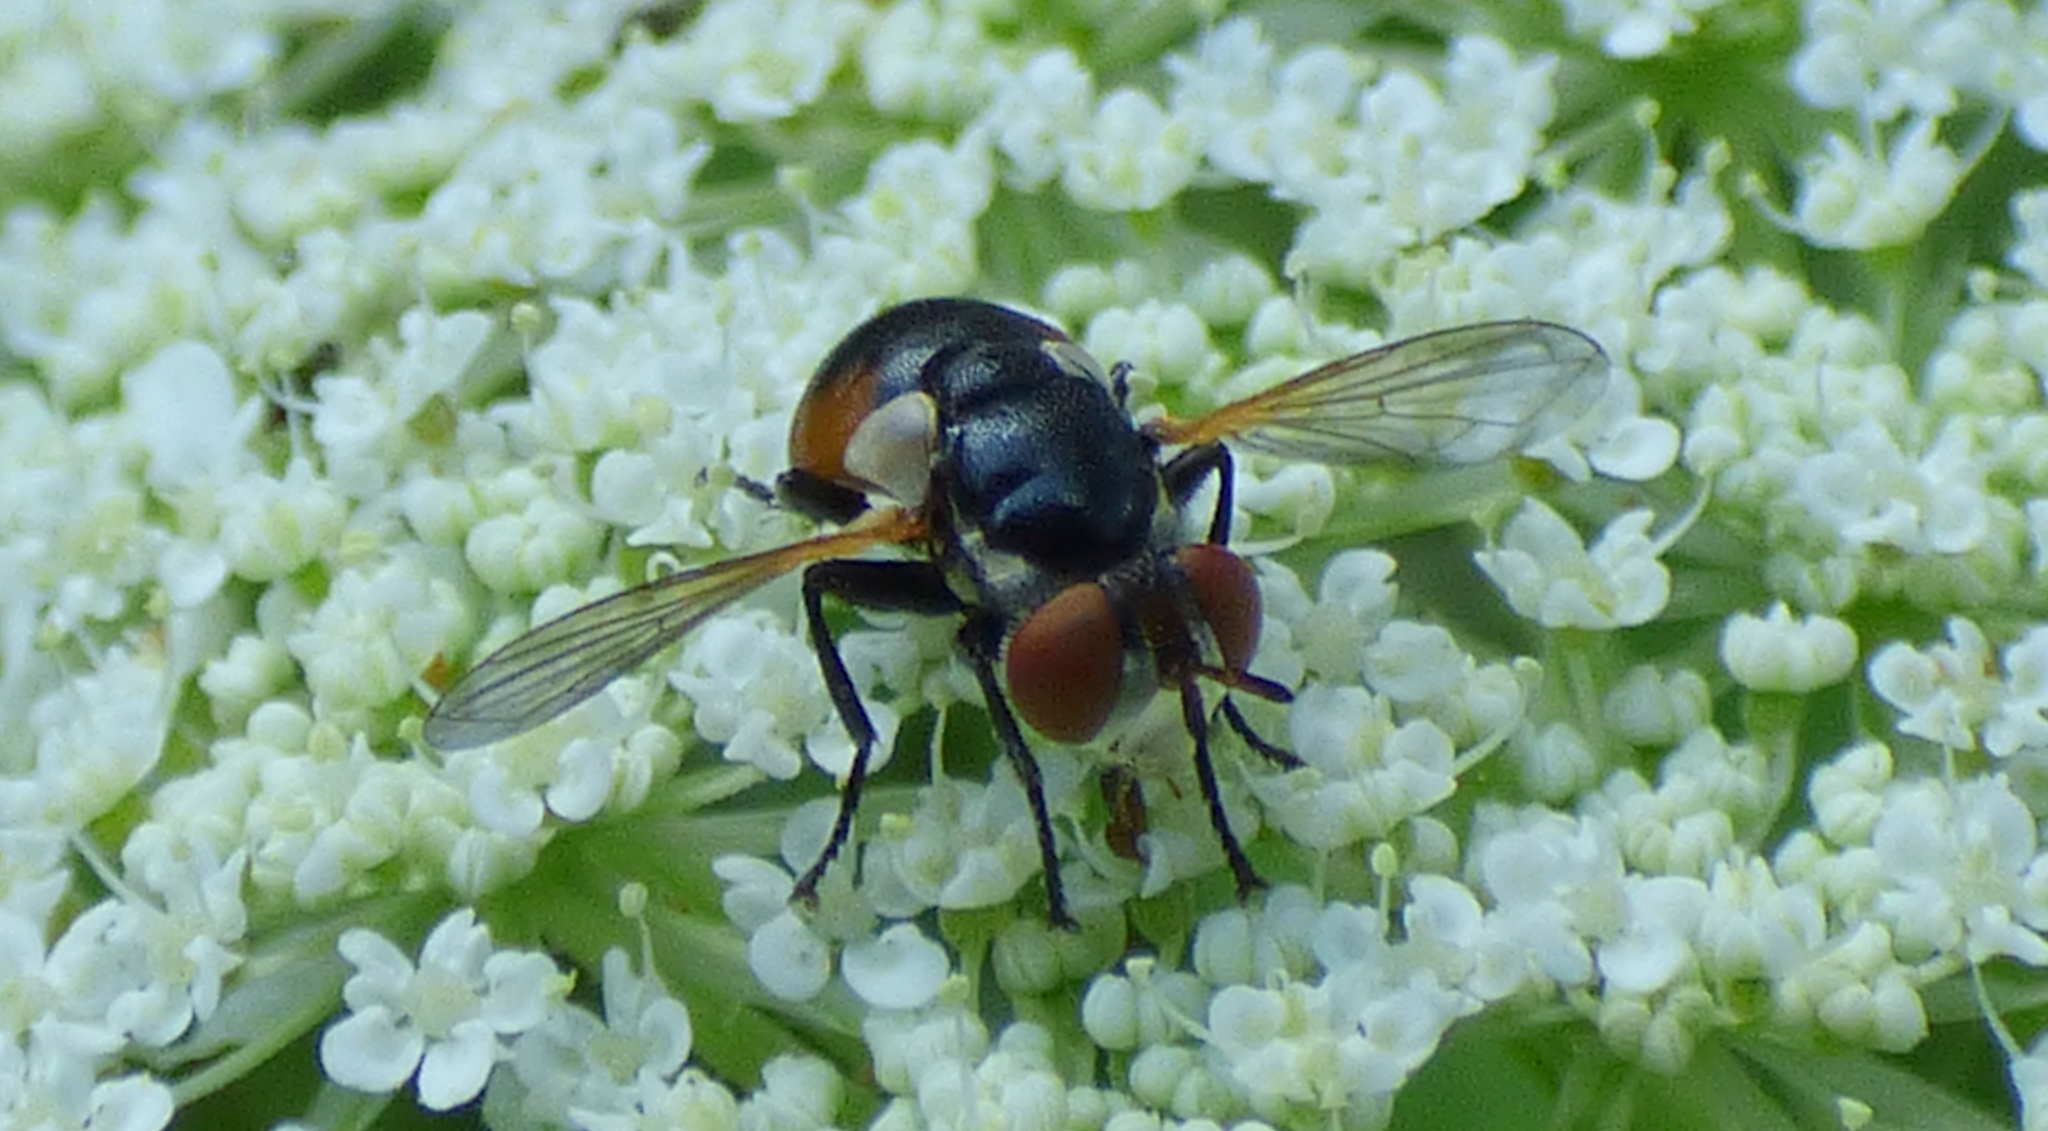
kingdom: Animalia
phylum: Arthropoda
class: Insecta
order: Diptera
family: Tachinidae
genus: Gymnosoma
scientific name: Gymnosoma
